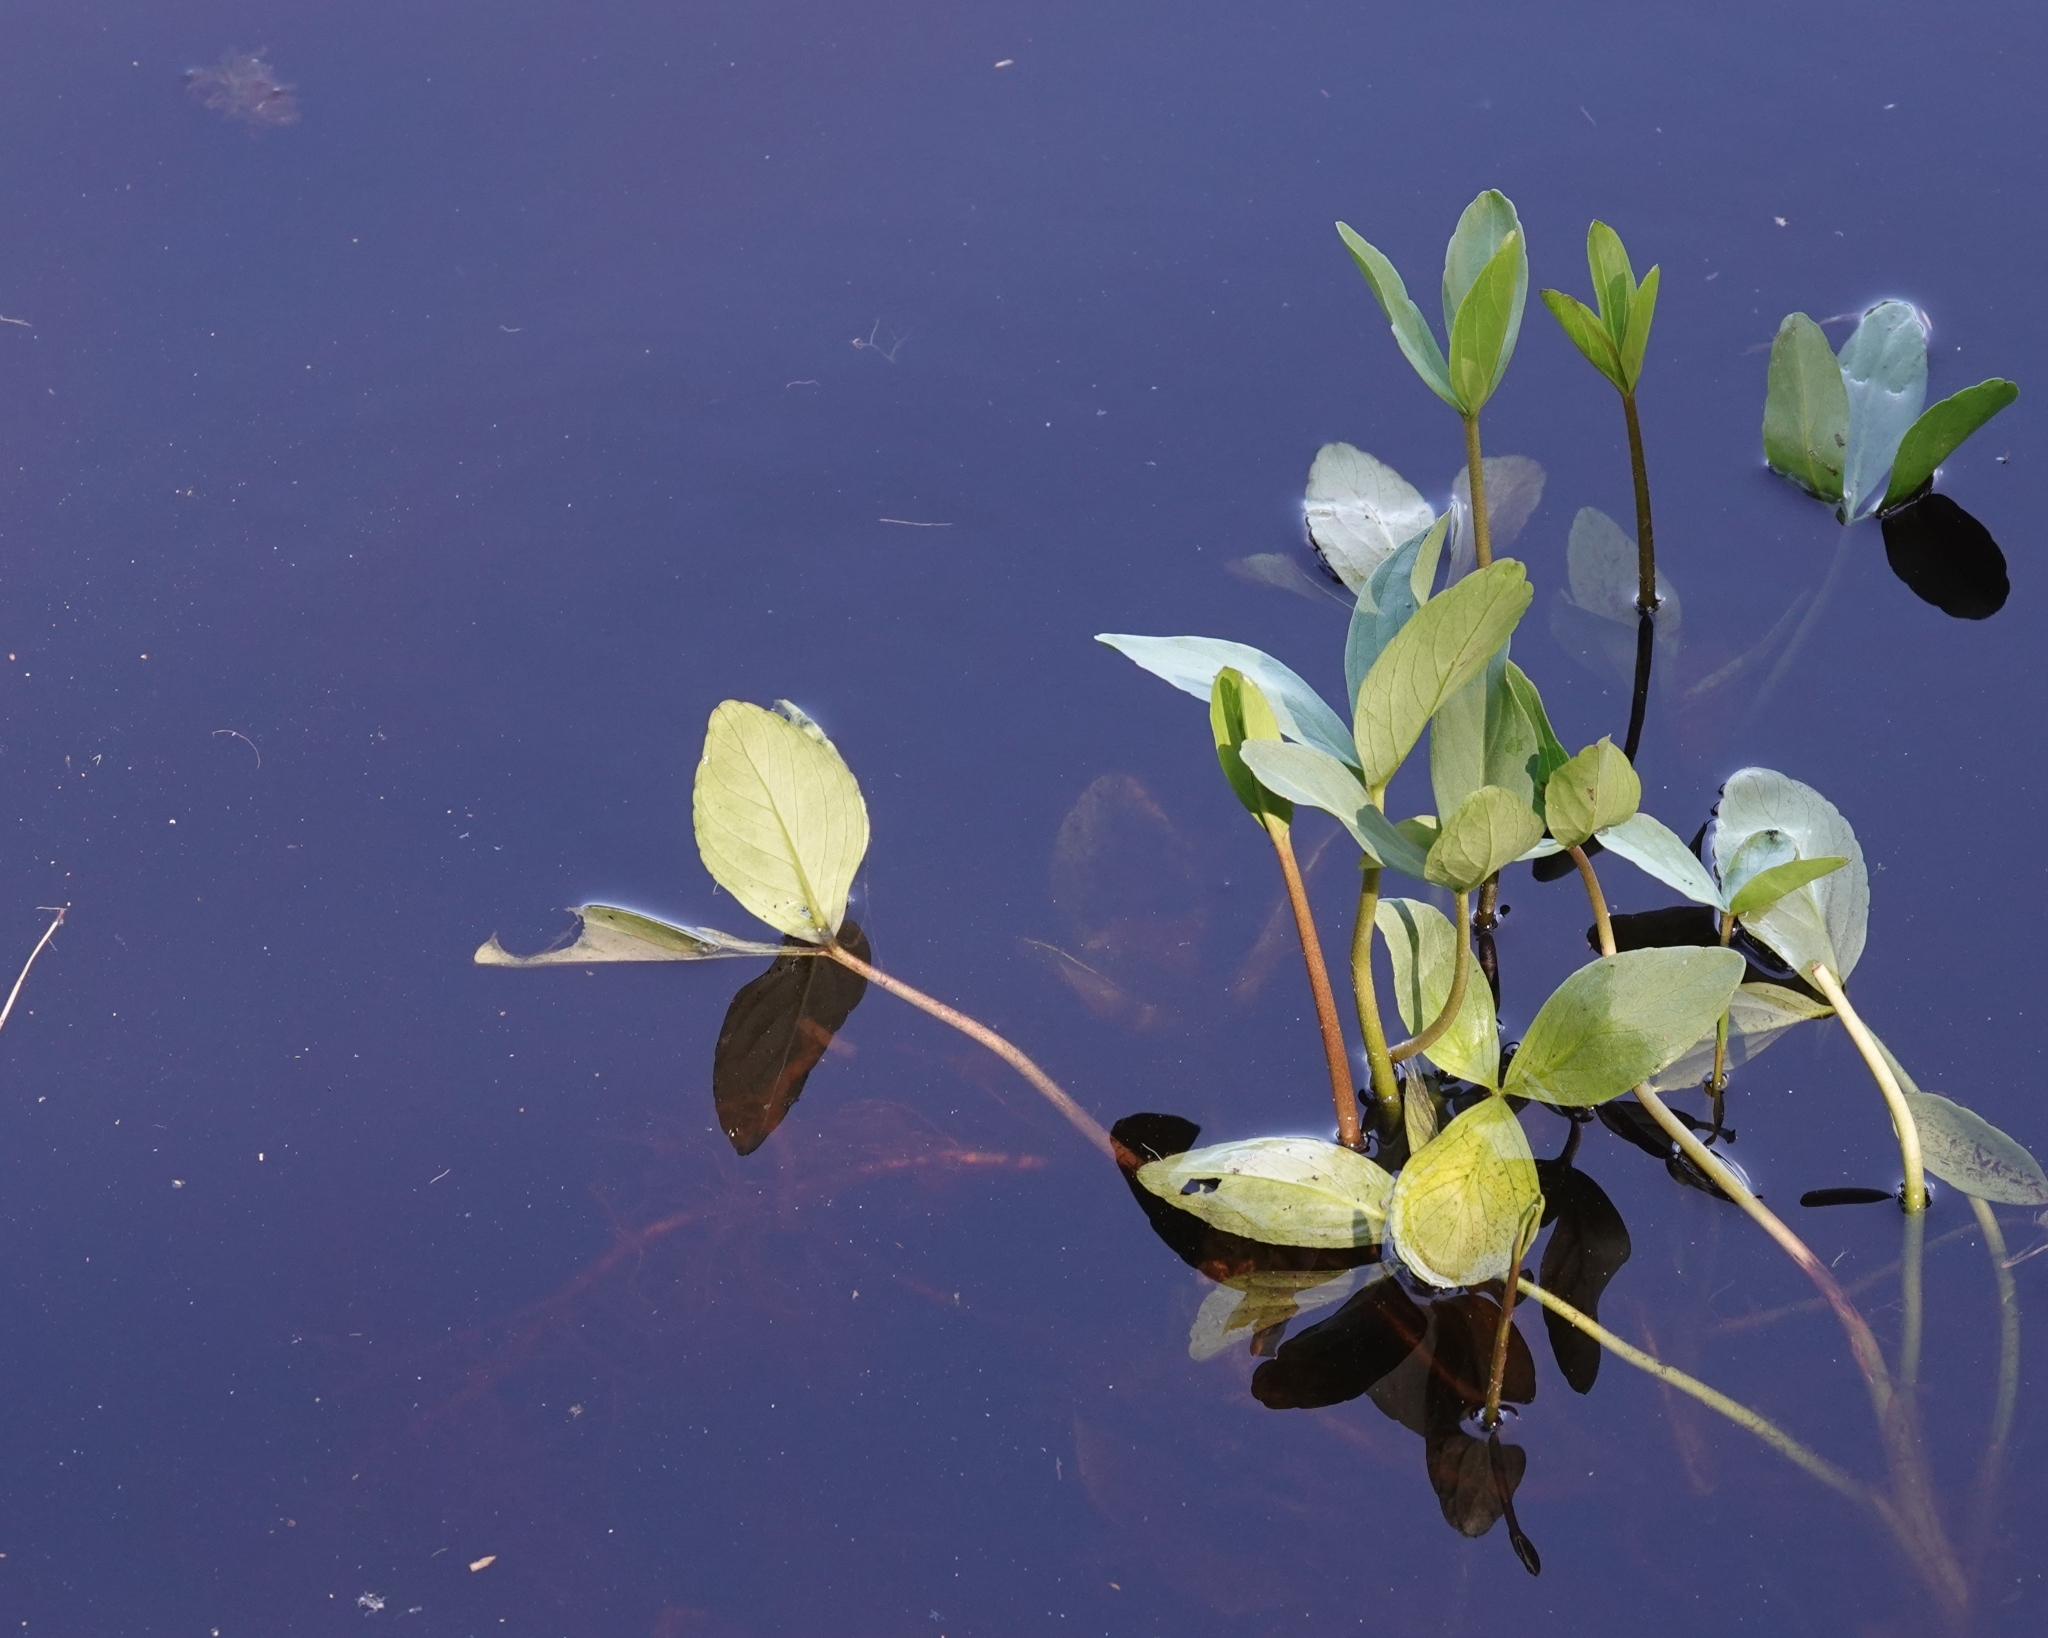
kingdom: Plantae
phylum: Tracheophyta
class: Magnoliopsida
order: Asterales
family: Menyanthaceae
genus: Menyanthes
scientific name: Menyanthes trifoliata
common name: Bogbean
